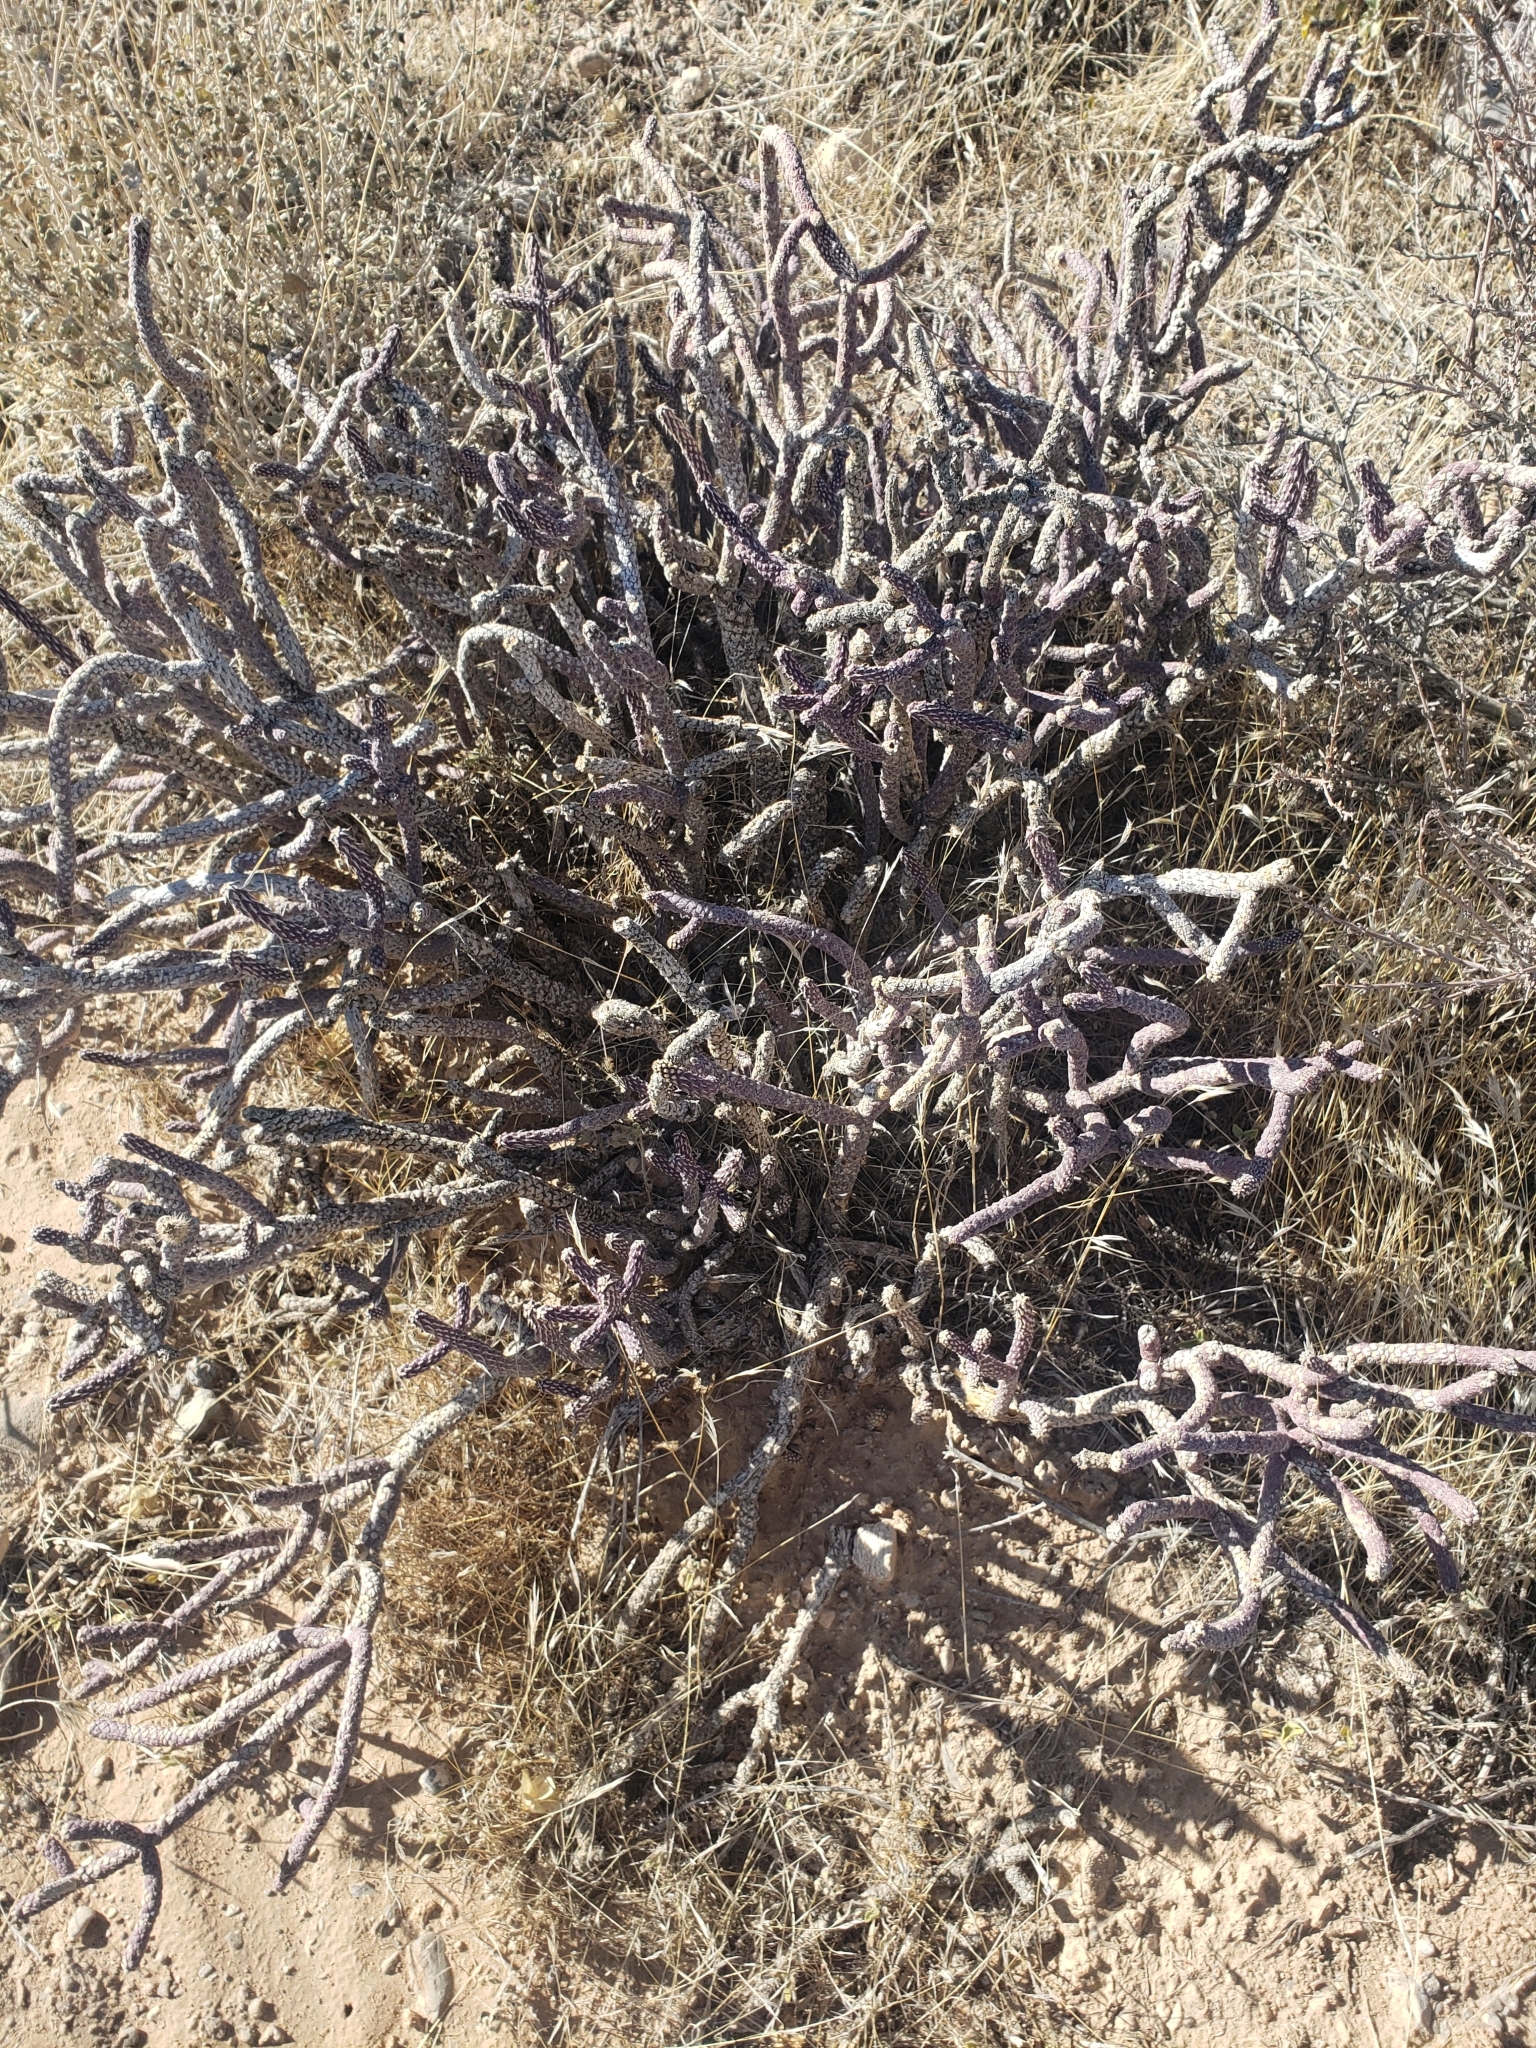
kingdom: Plantae
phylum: Tracheophyta
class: Magnoliopsida
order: Caryophyllales
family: Cactaceae
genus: Cylindropuntia
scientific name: Cylindropuntia ramosissima
